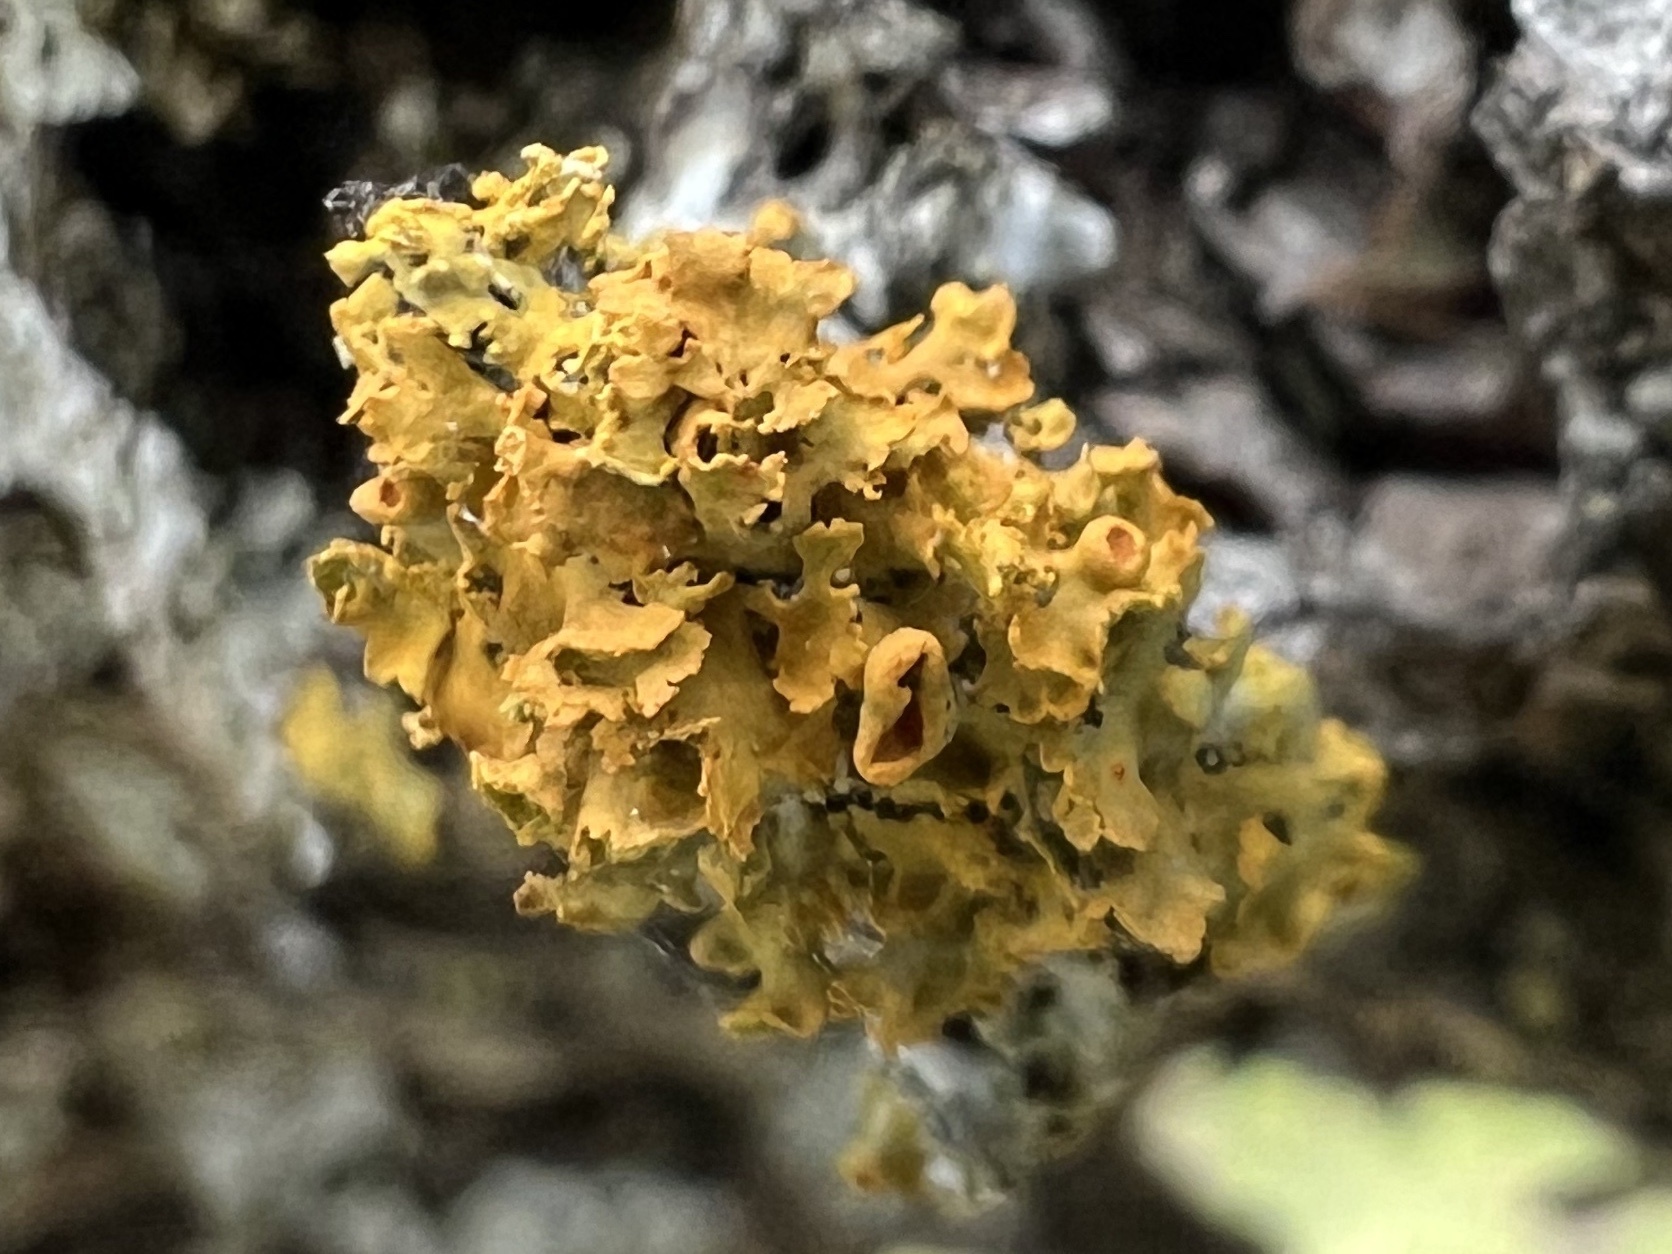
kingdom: Fungi
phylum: Ascomycota
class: Lecanoromycetes
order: Teloschistales
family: Teloschistaceae
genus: Oxneria
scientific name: Oxneria fallax
